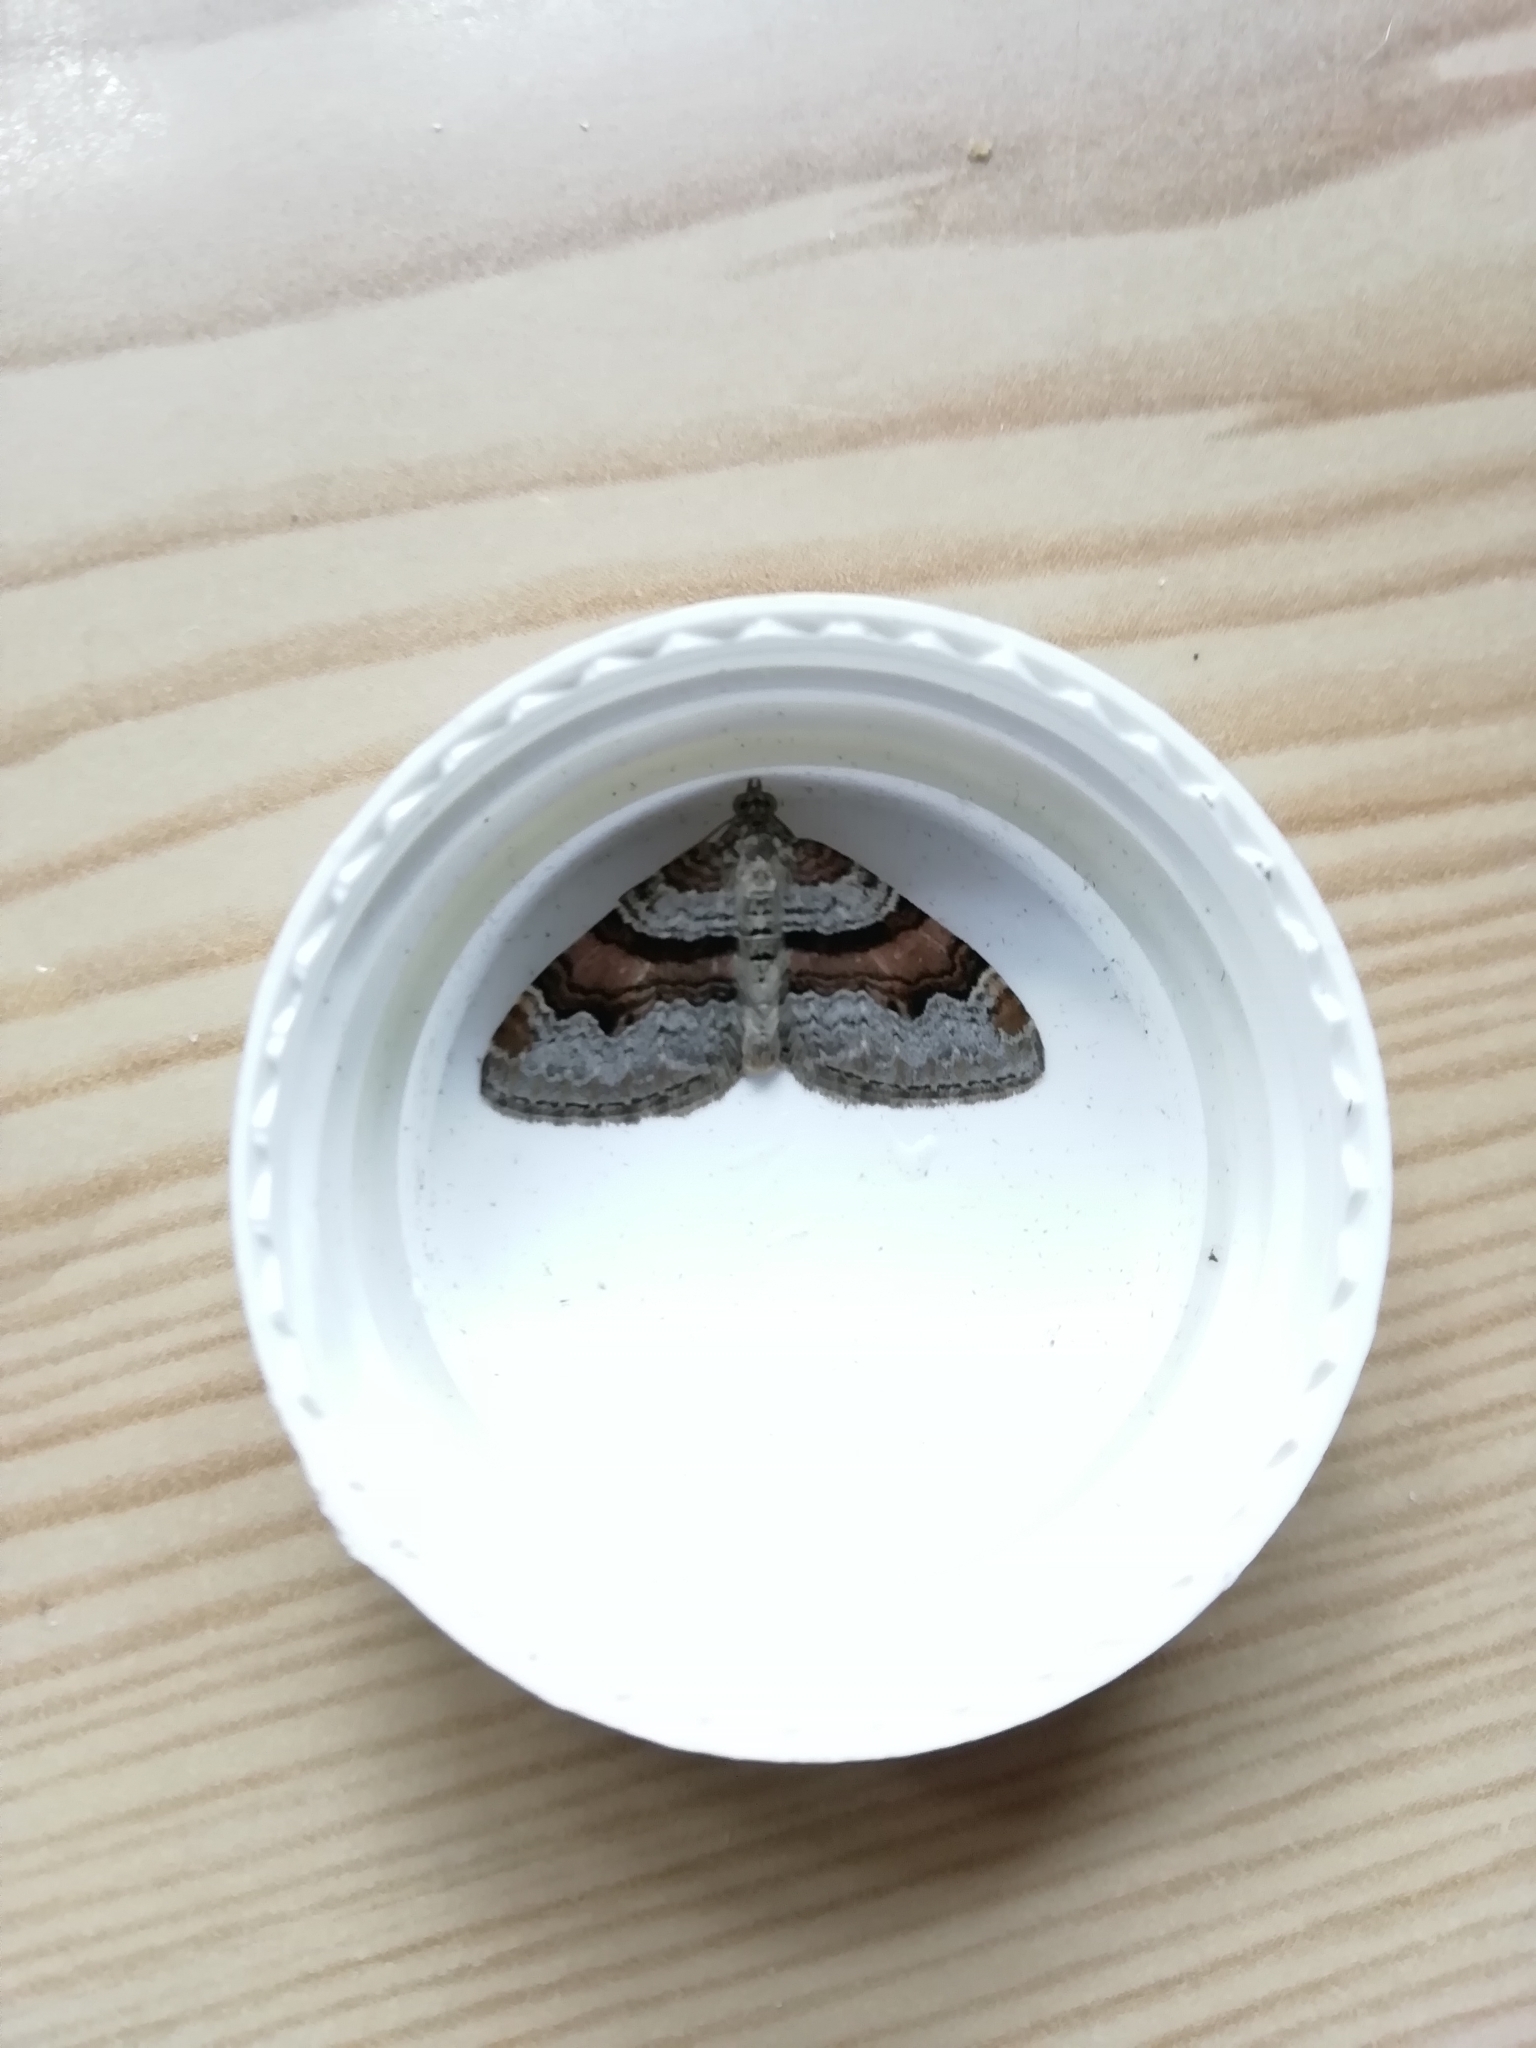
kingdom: Animalia
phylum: Arthropoda
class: Insecta
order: Lepidoptera
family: Geometridae
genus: Xanthorhoe
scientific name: Xanthorhoe designata
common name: Flame carpet
